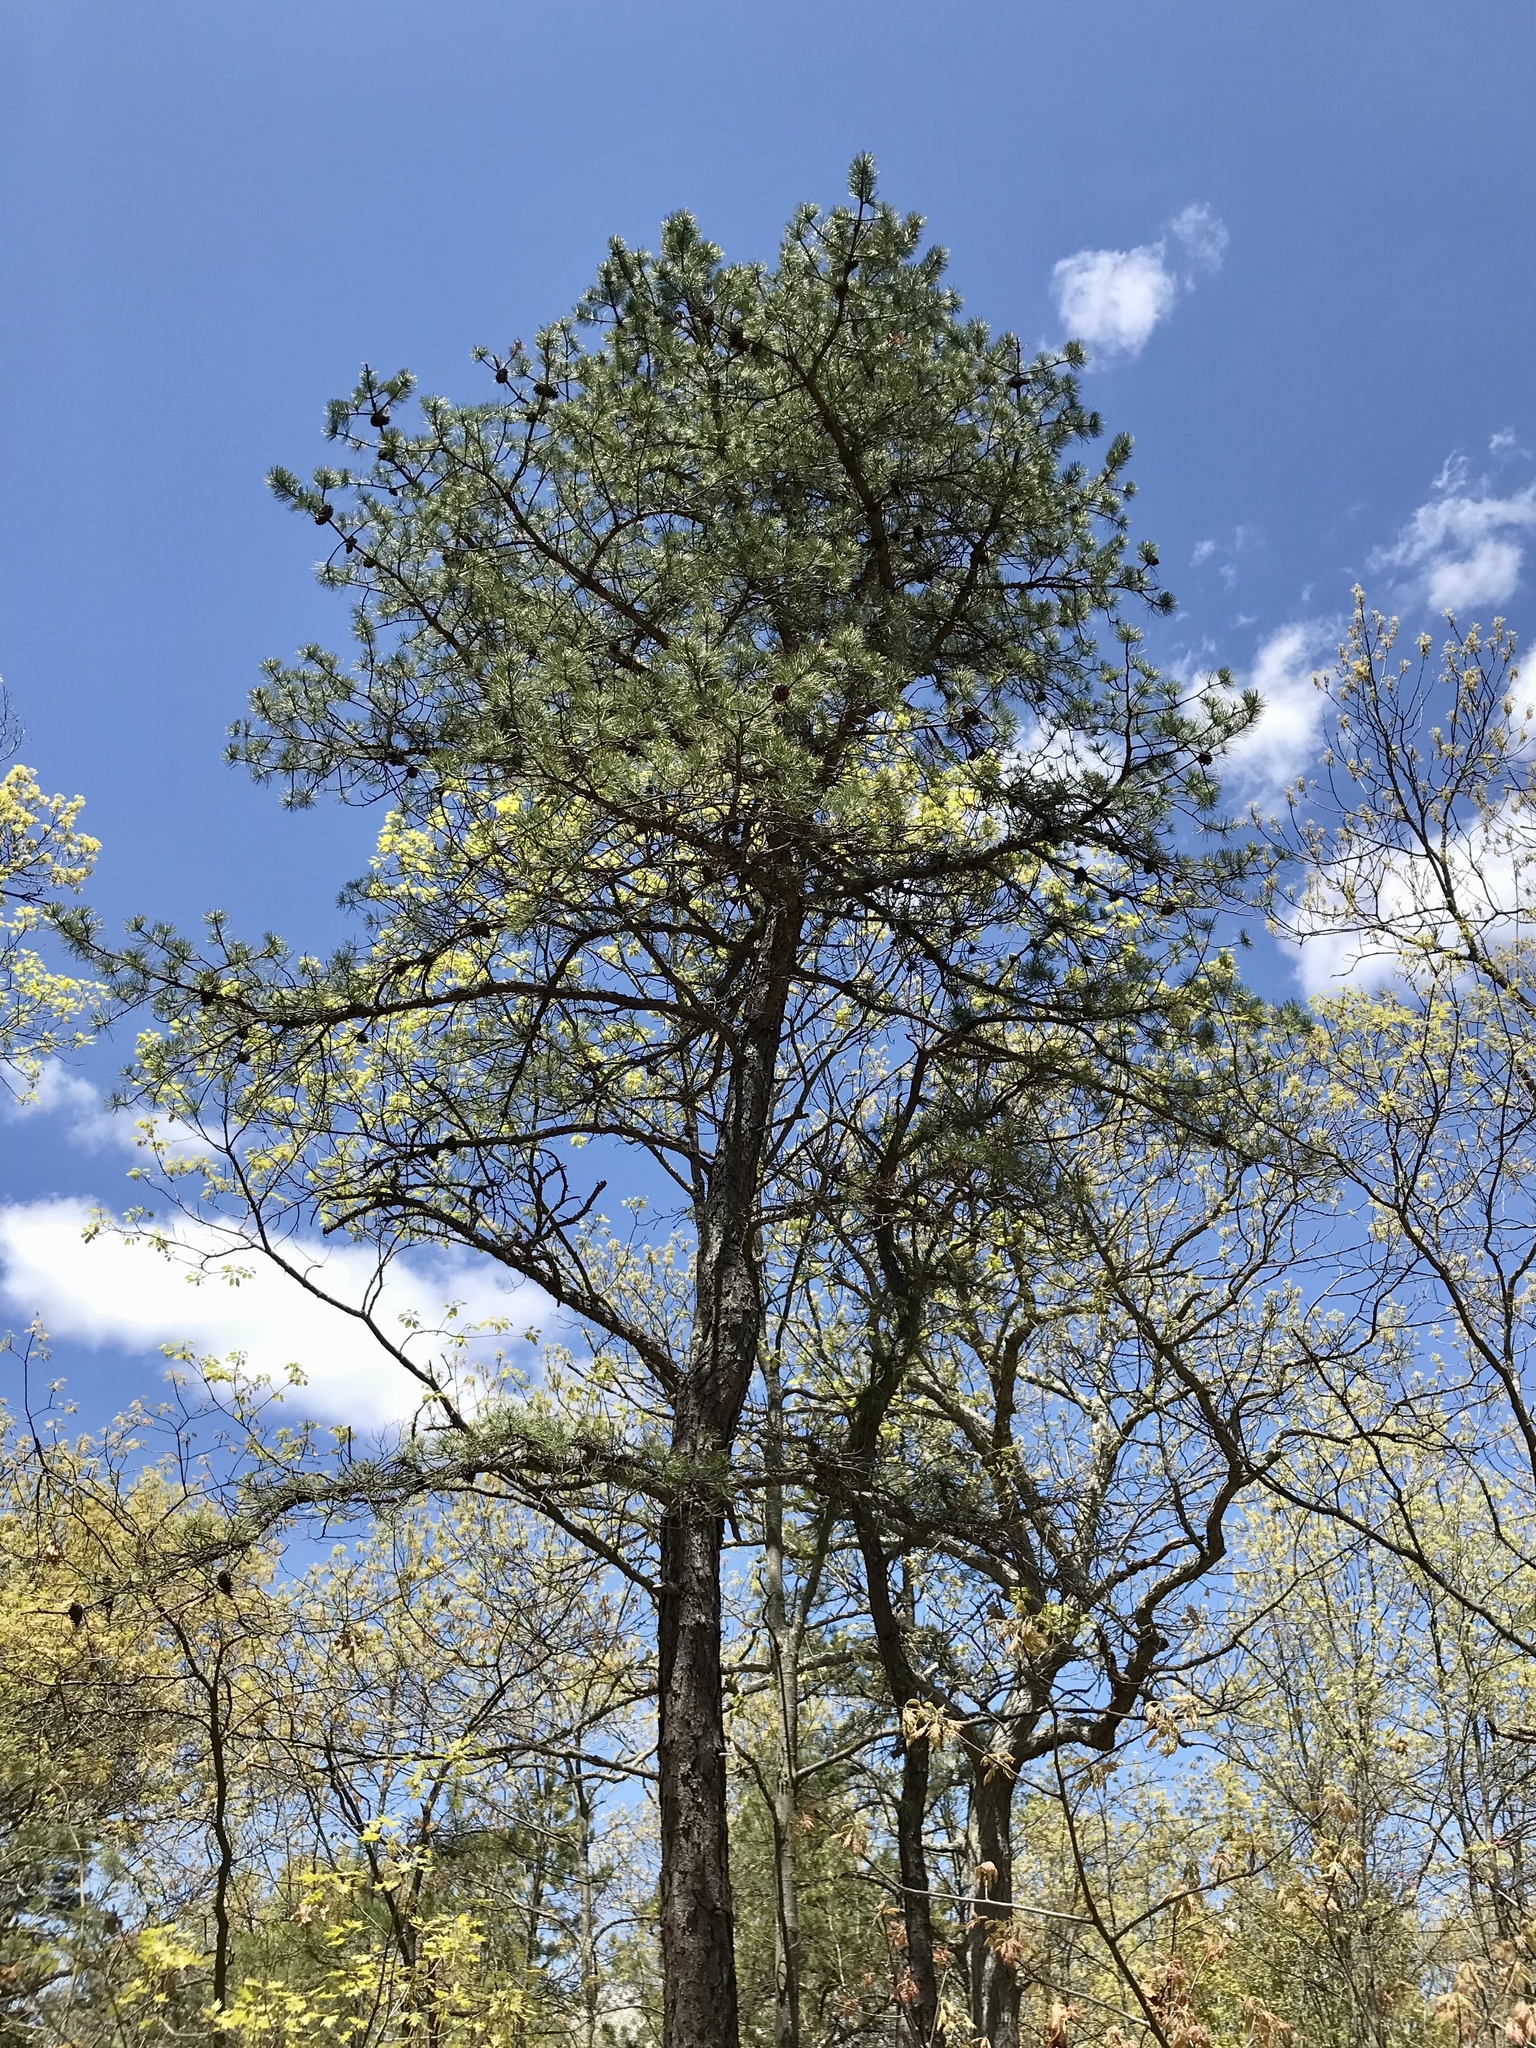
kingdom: Plantae
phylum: Tracheophyta
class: Pinopsida
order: Pinales
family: Pinaceae
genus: Pinus
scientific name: Pinus rigida
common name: Pitch pine
